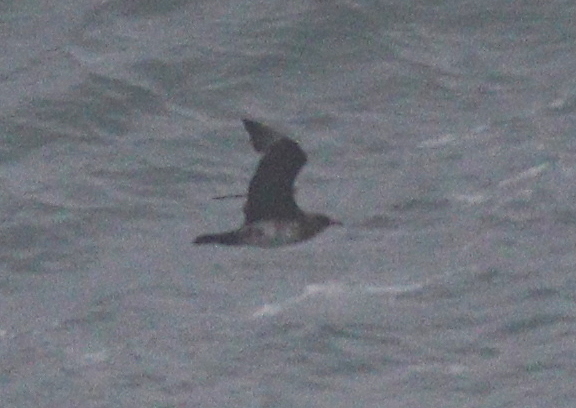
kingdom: Animalia
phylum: Chordata
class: Aves
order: Charadriiformes
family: Stercorariidae
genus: Stercorarius
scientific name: Stercorarius parasiticus
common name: Parasitic jaeger
